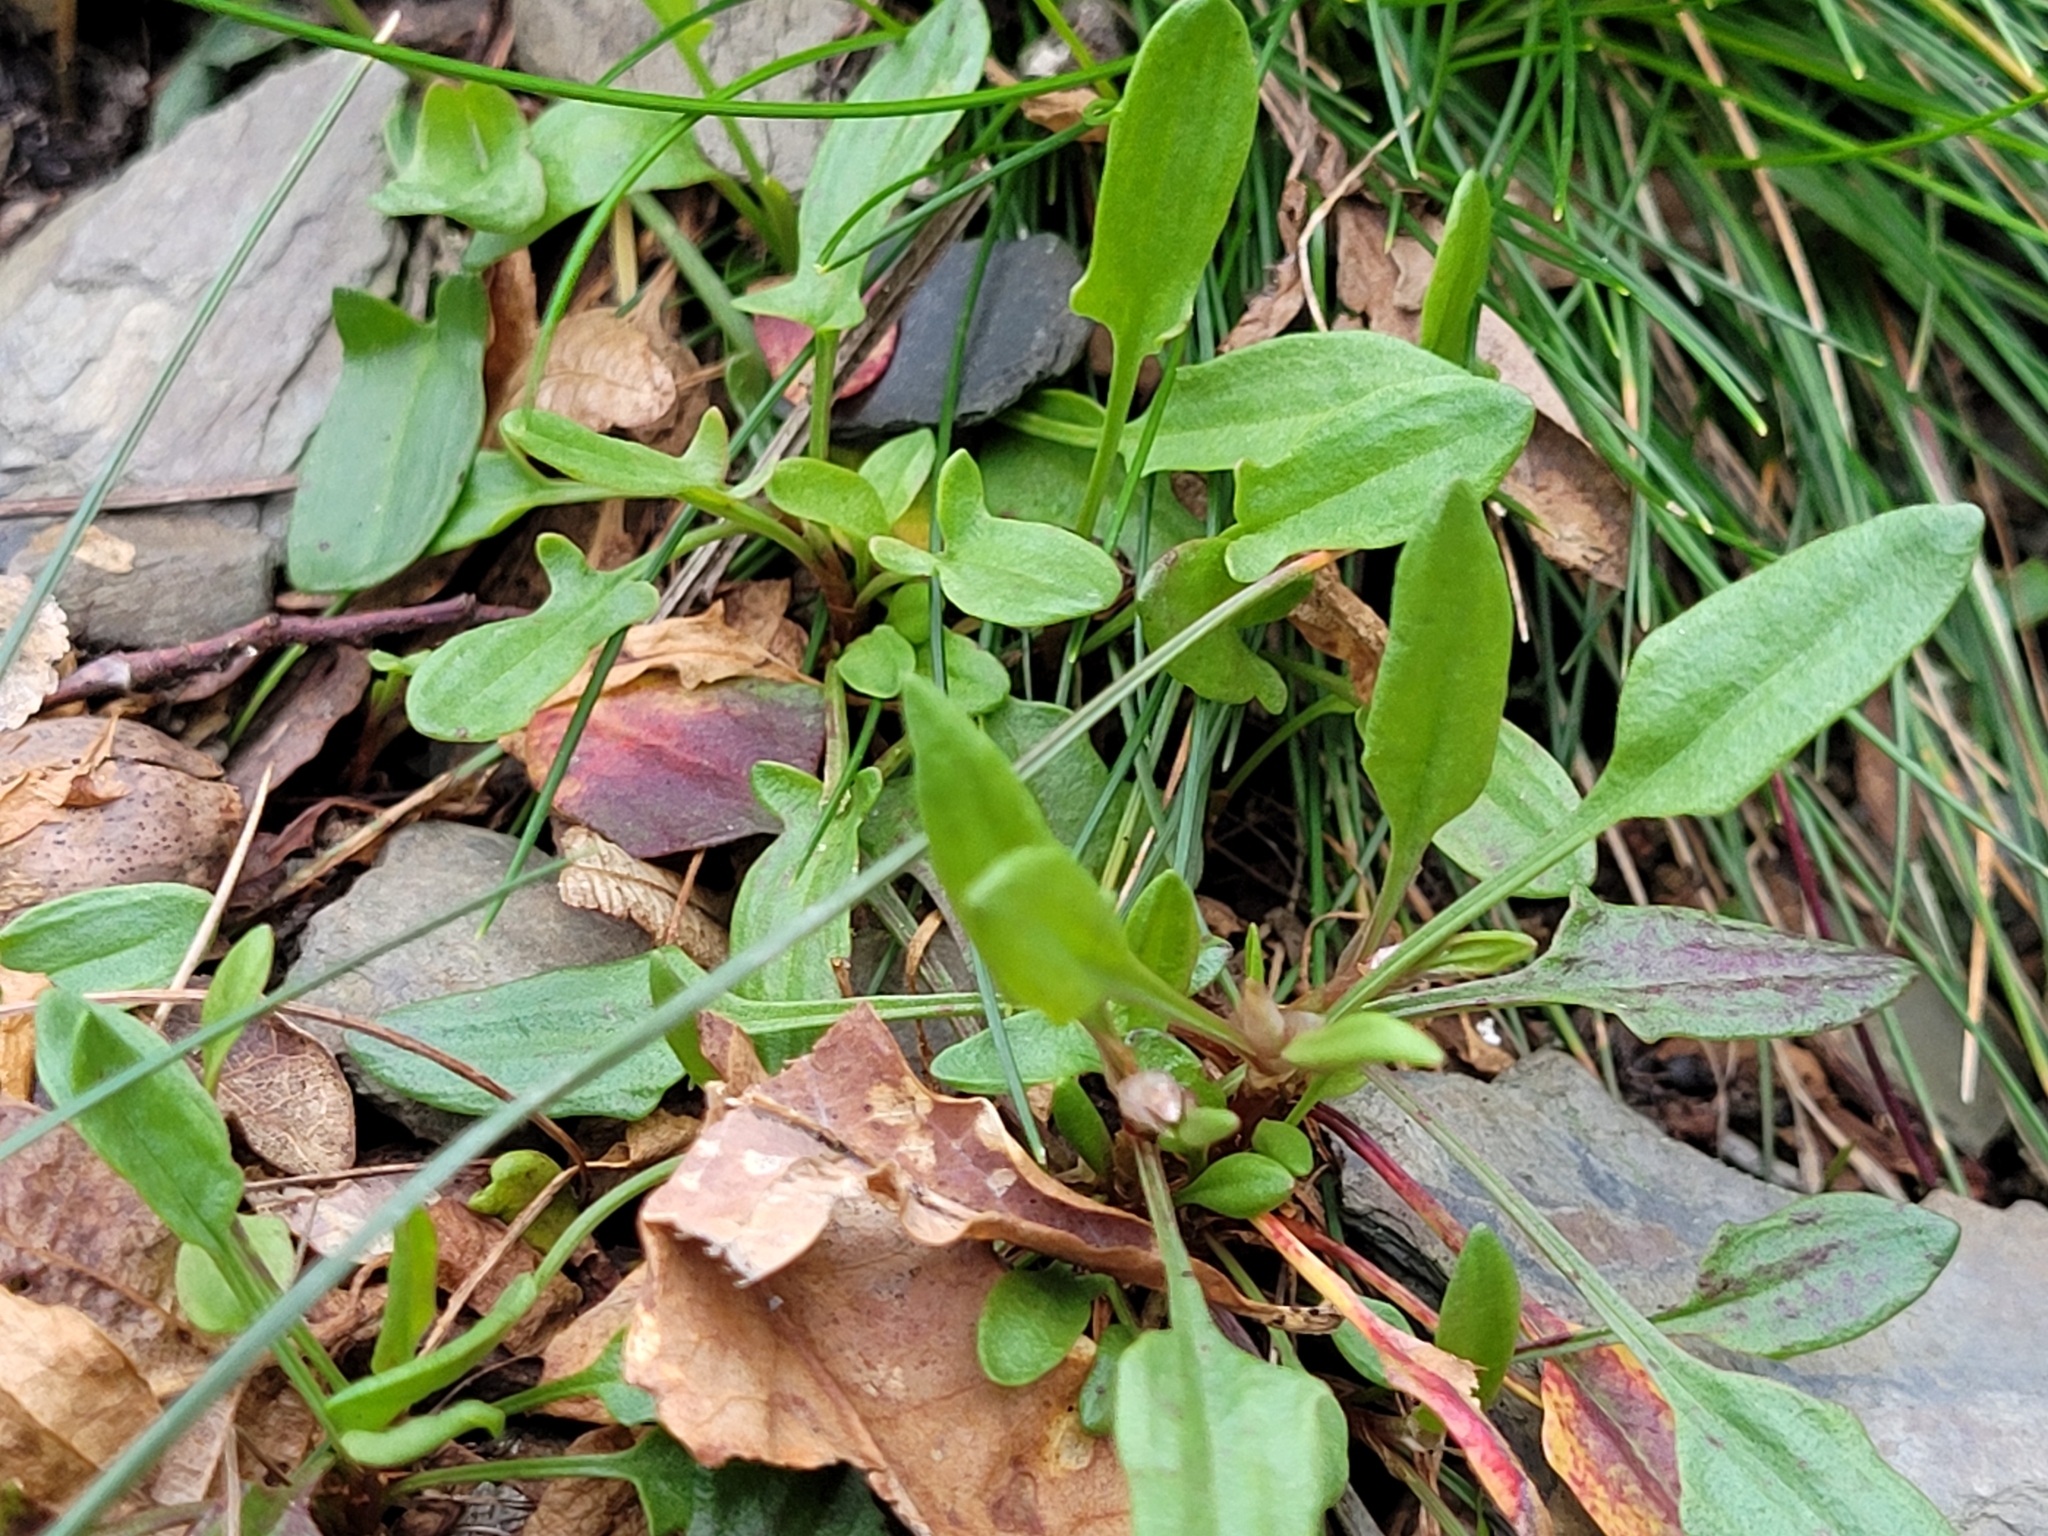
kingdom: Plantae
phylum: Tracheophyta
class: Magnoliopsida
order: Caryophyllales
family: Polygonaceae
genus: Rumex
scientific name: Rumex acetosella
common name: Common sheep sorrel
